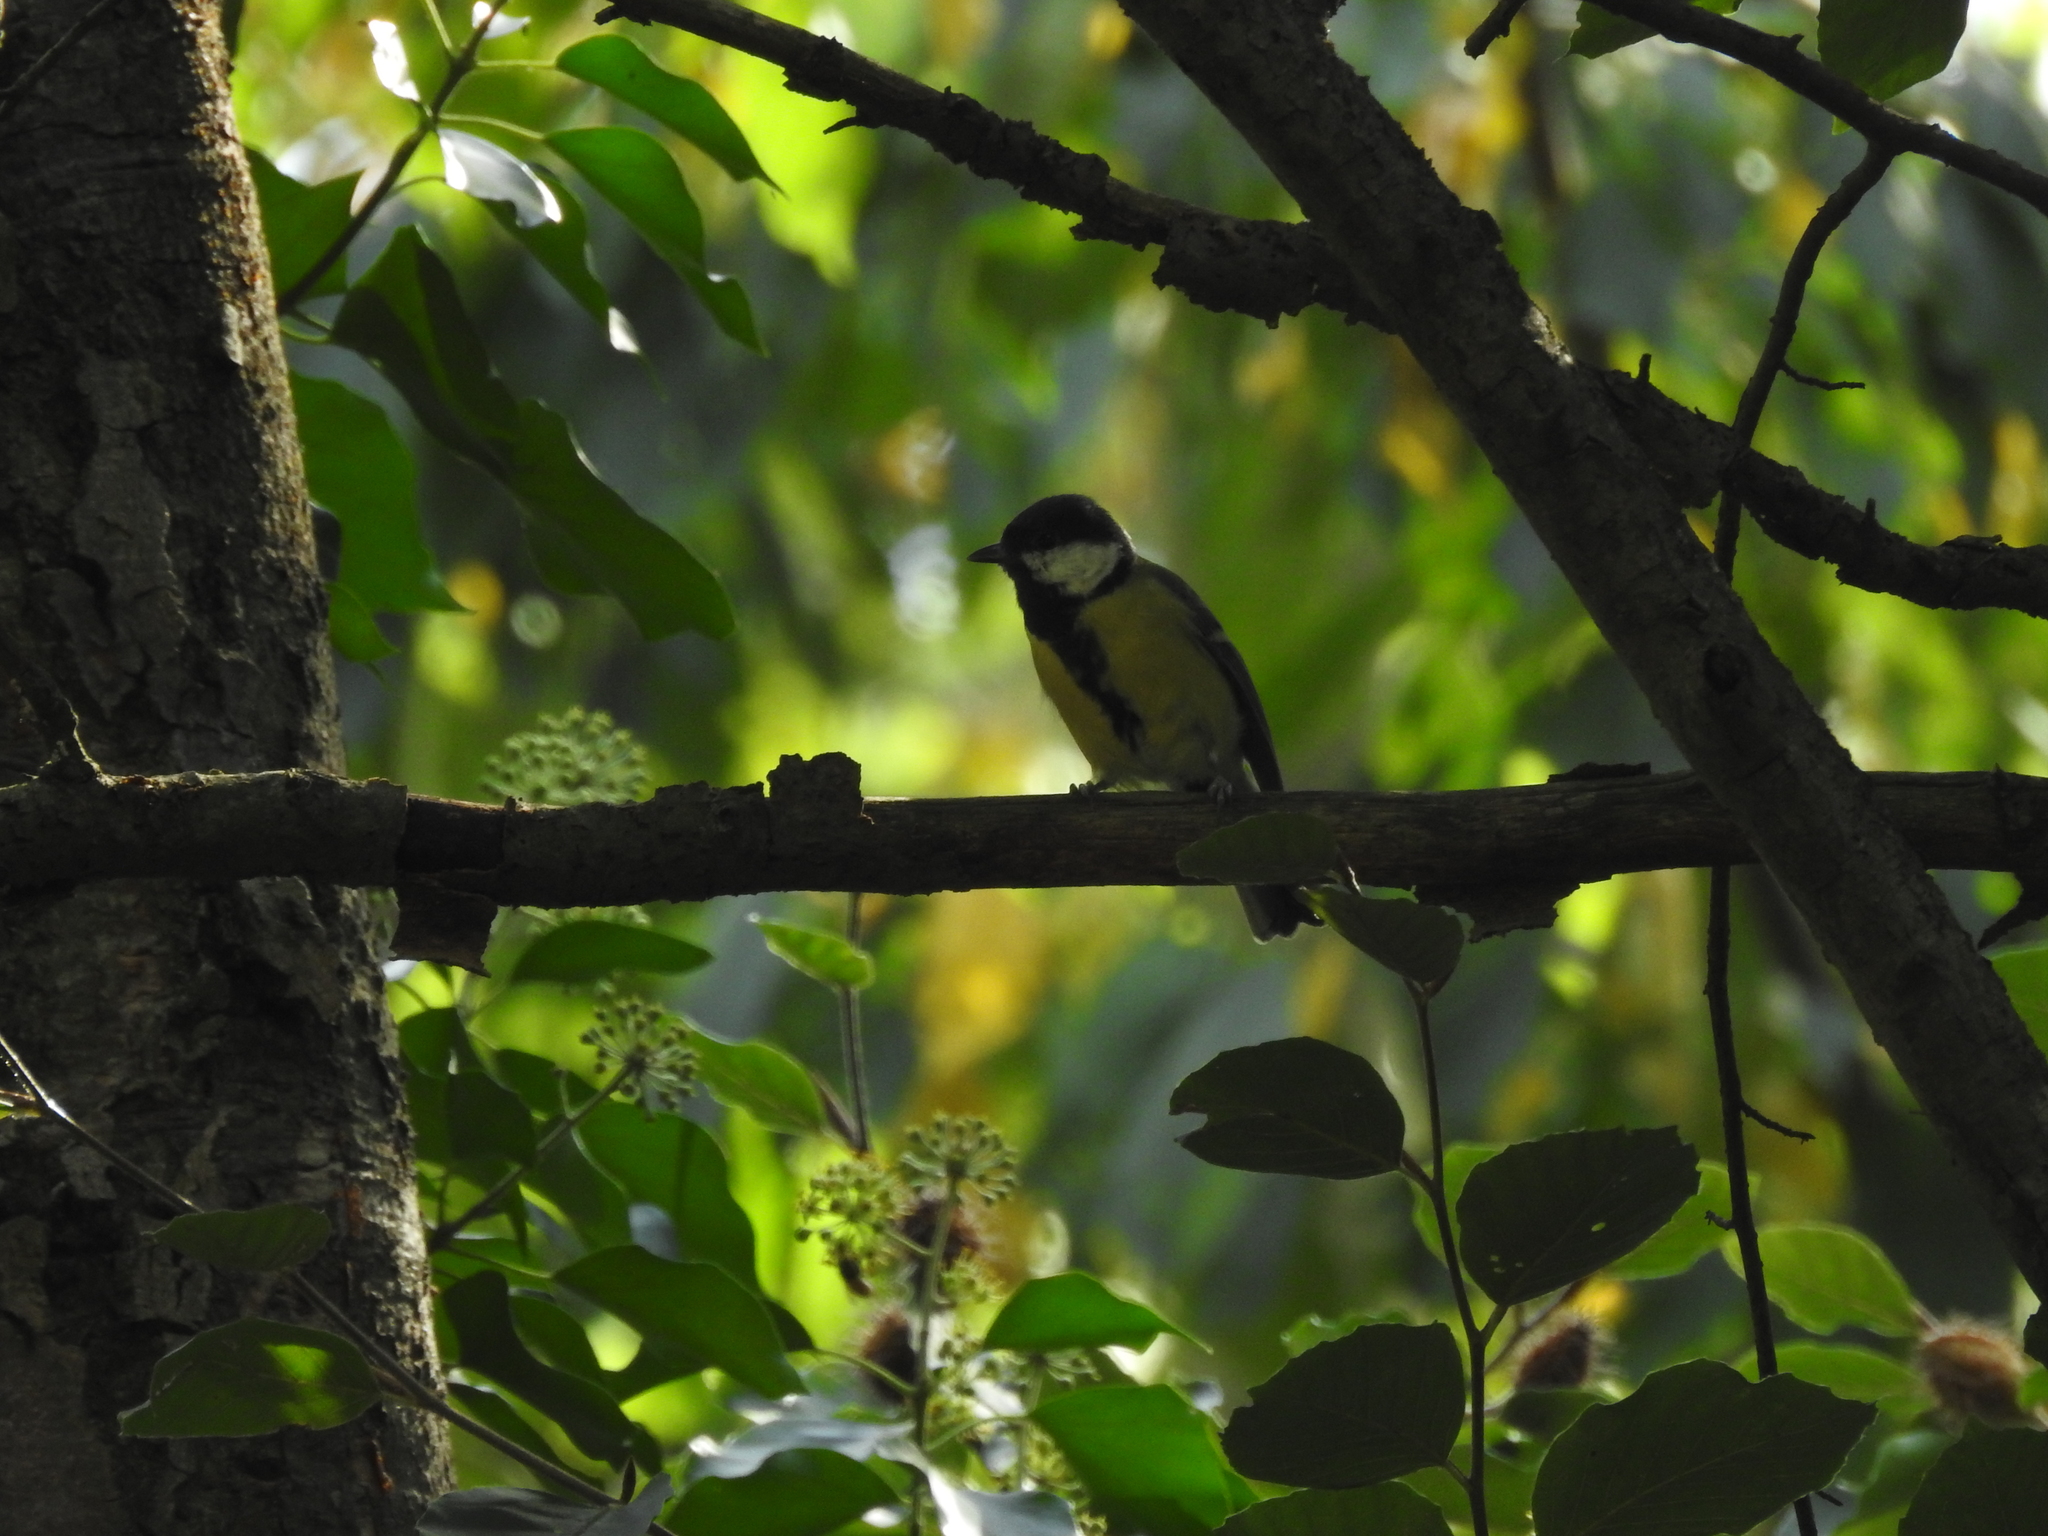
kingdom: Animalia
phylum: Chordata
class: Aves
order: Passeriformes
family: Paridae
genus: Parus
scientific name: Parus major
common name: Great tit
